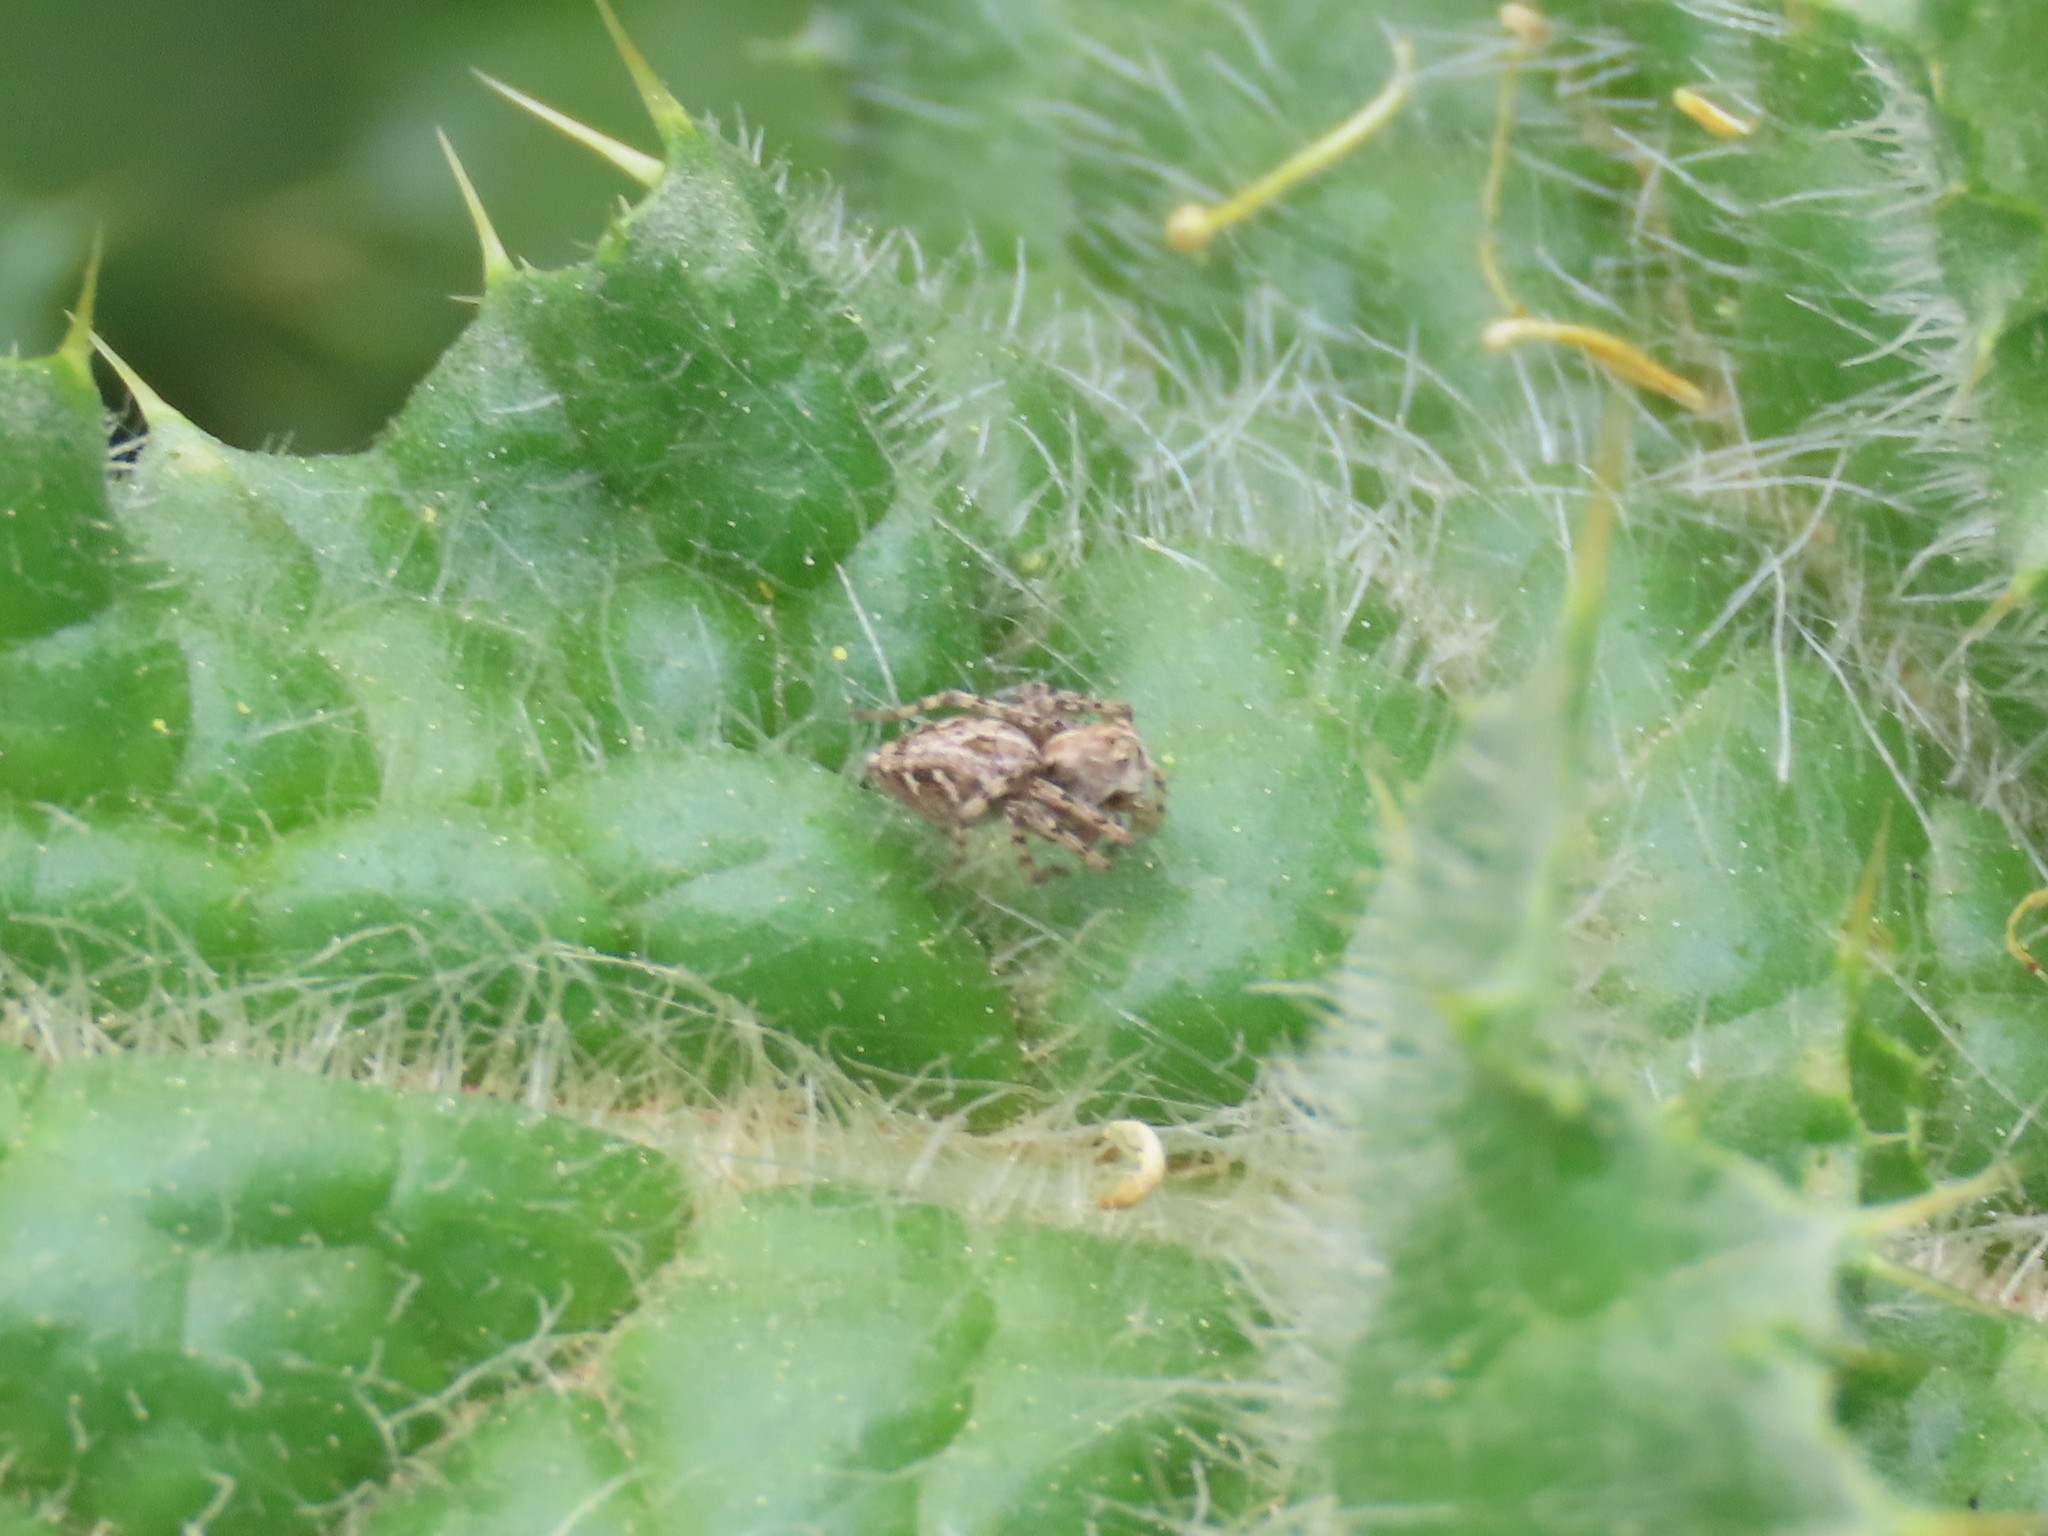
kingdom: Animalia
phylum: Arthropoda
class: Arachnida
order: Araneae
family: Oxyopidae
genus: Oxyopes
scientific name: Oxyopes heterophthalmus
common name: Lynx spider
